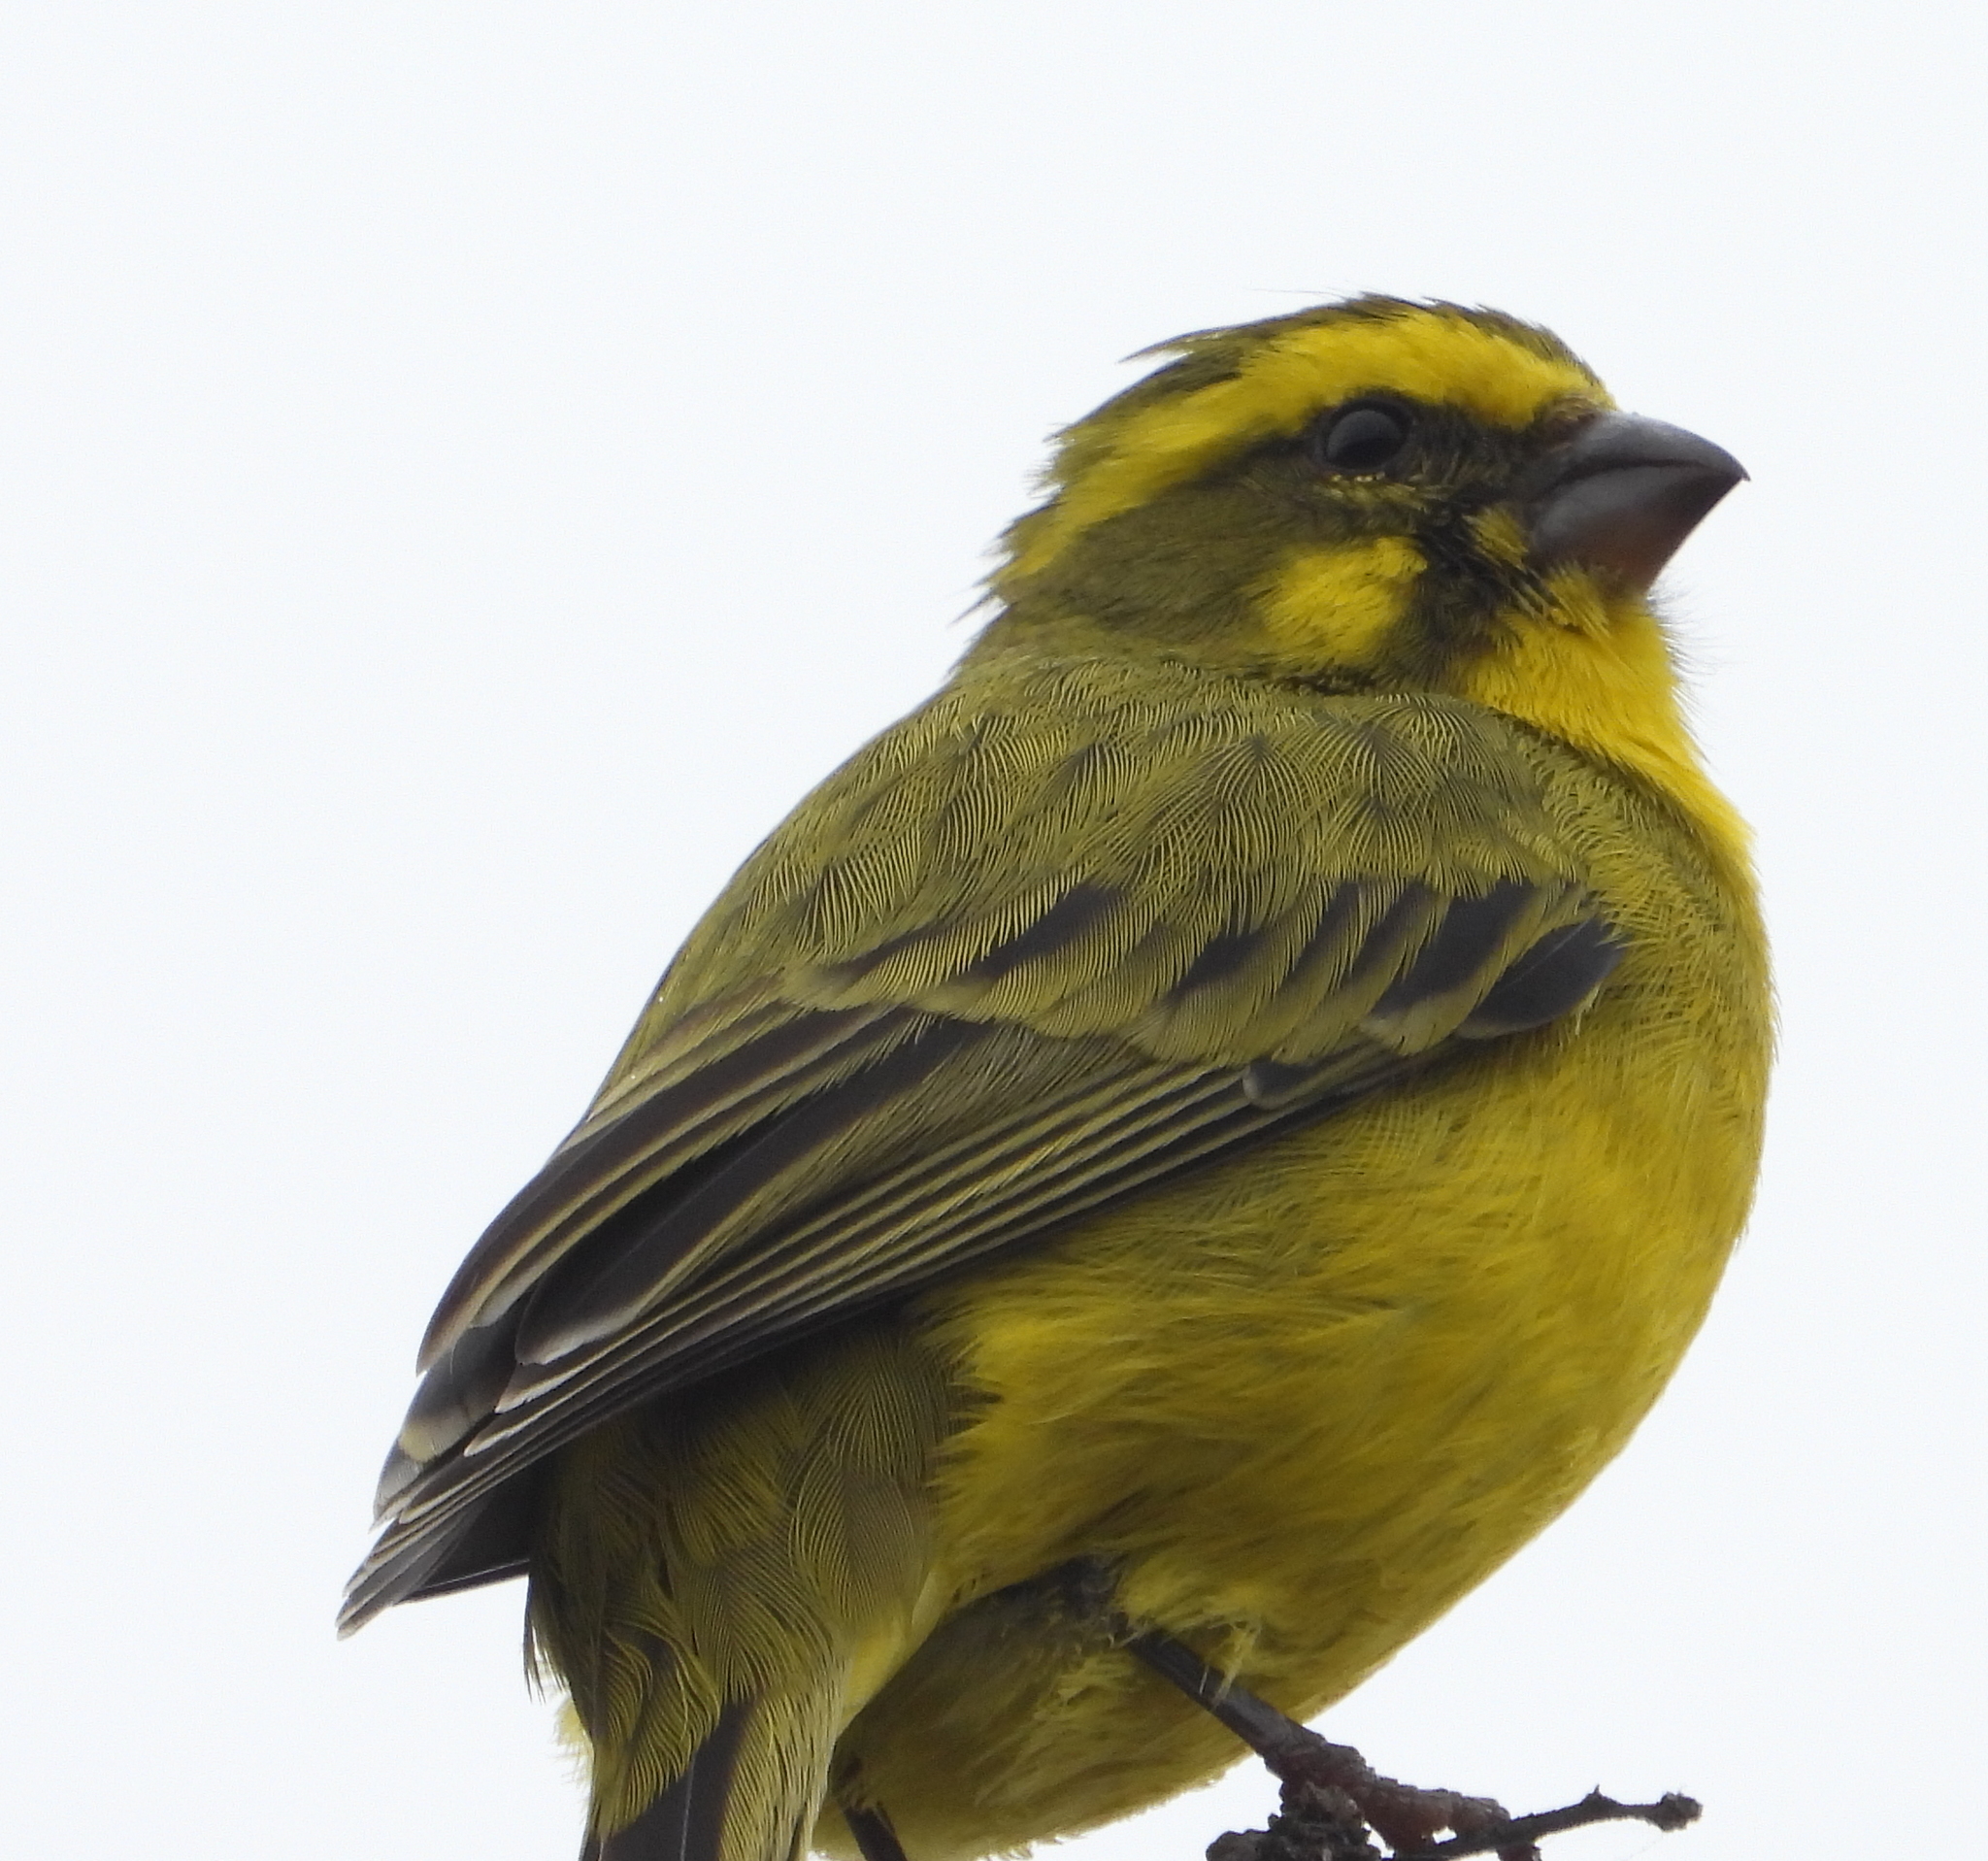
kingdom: Animalia
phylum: Chordata
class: Aves
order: Passeriformes
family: Fringillidae
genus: Crithagra
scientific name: Crithagra flaviventris
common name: Yellow canary
